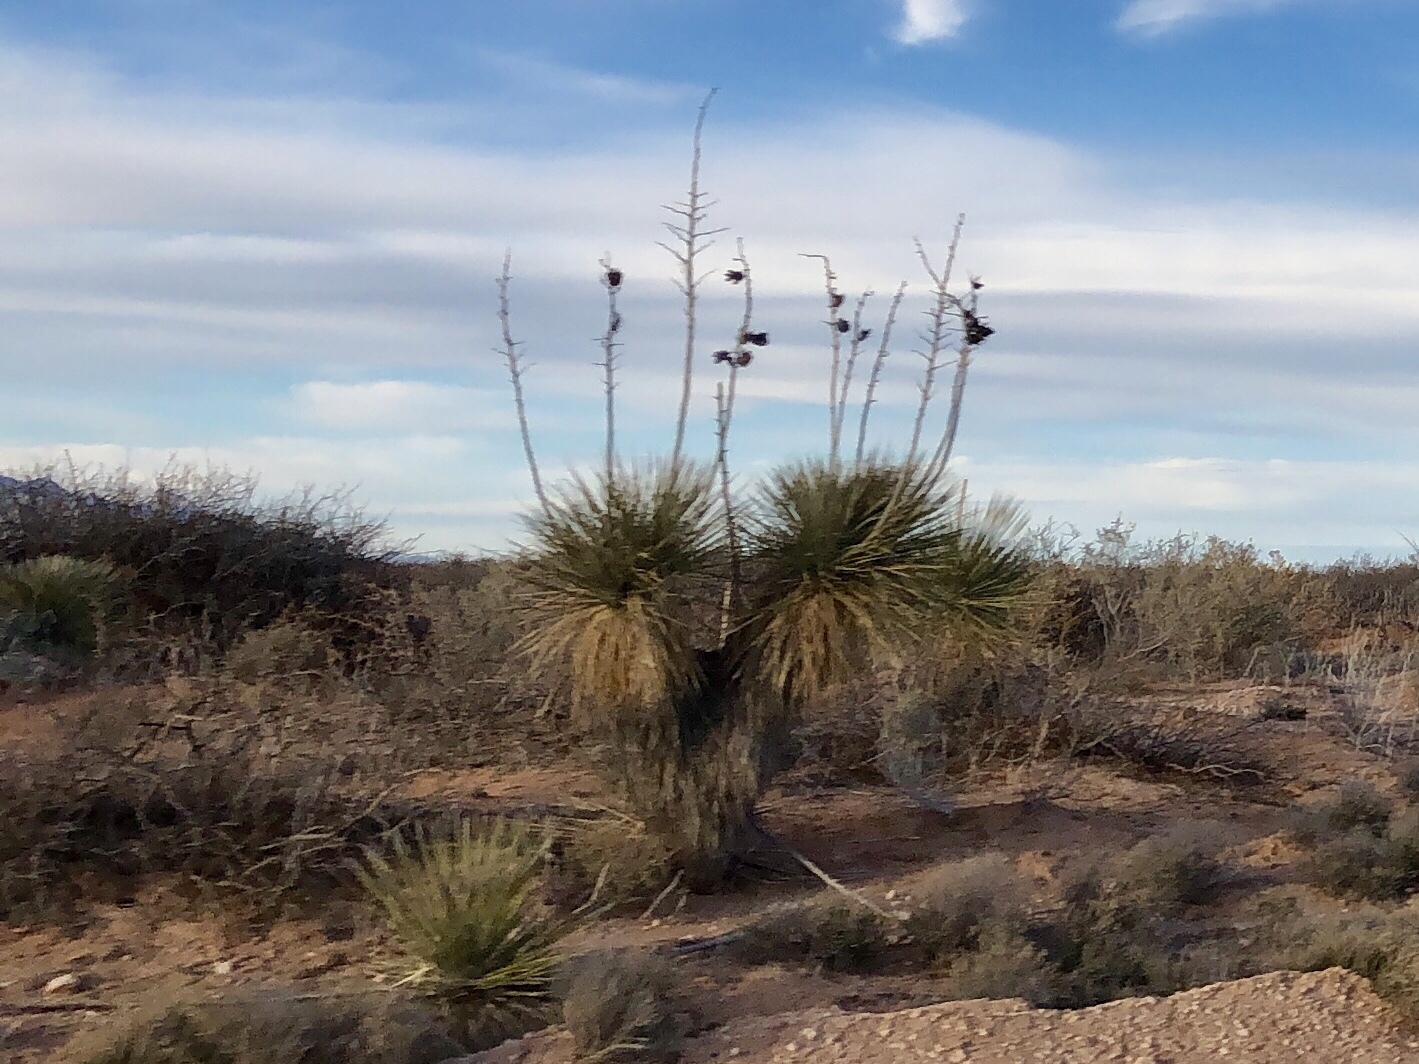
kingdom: Plantae
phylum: Tracheophyta
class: Liliopsida
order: Asparagales
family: Asparagaceae
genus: Yucca
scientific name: Yucca elata
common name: Palmella
